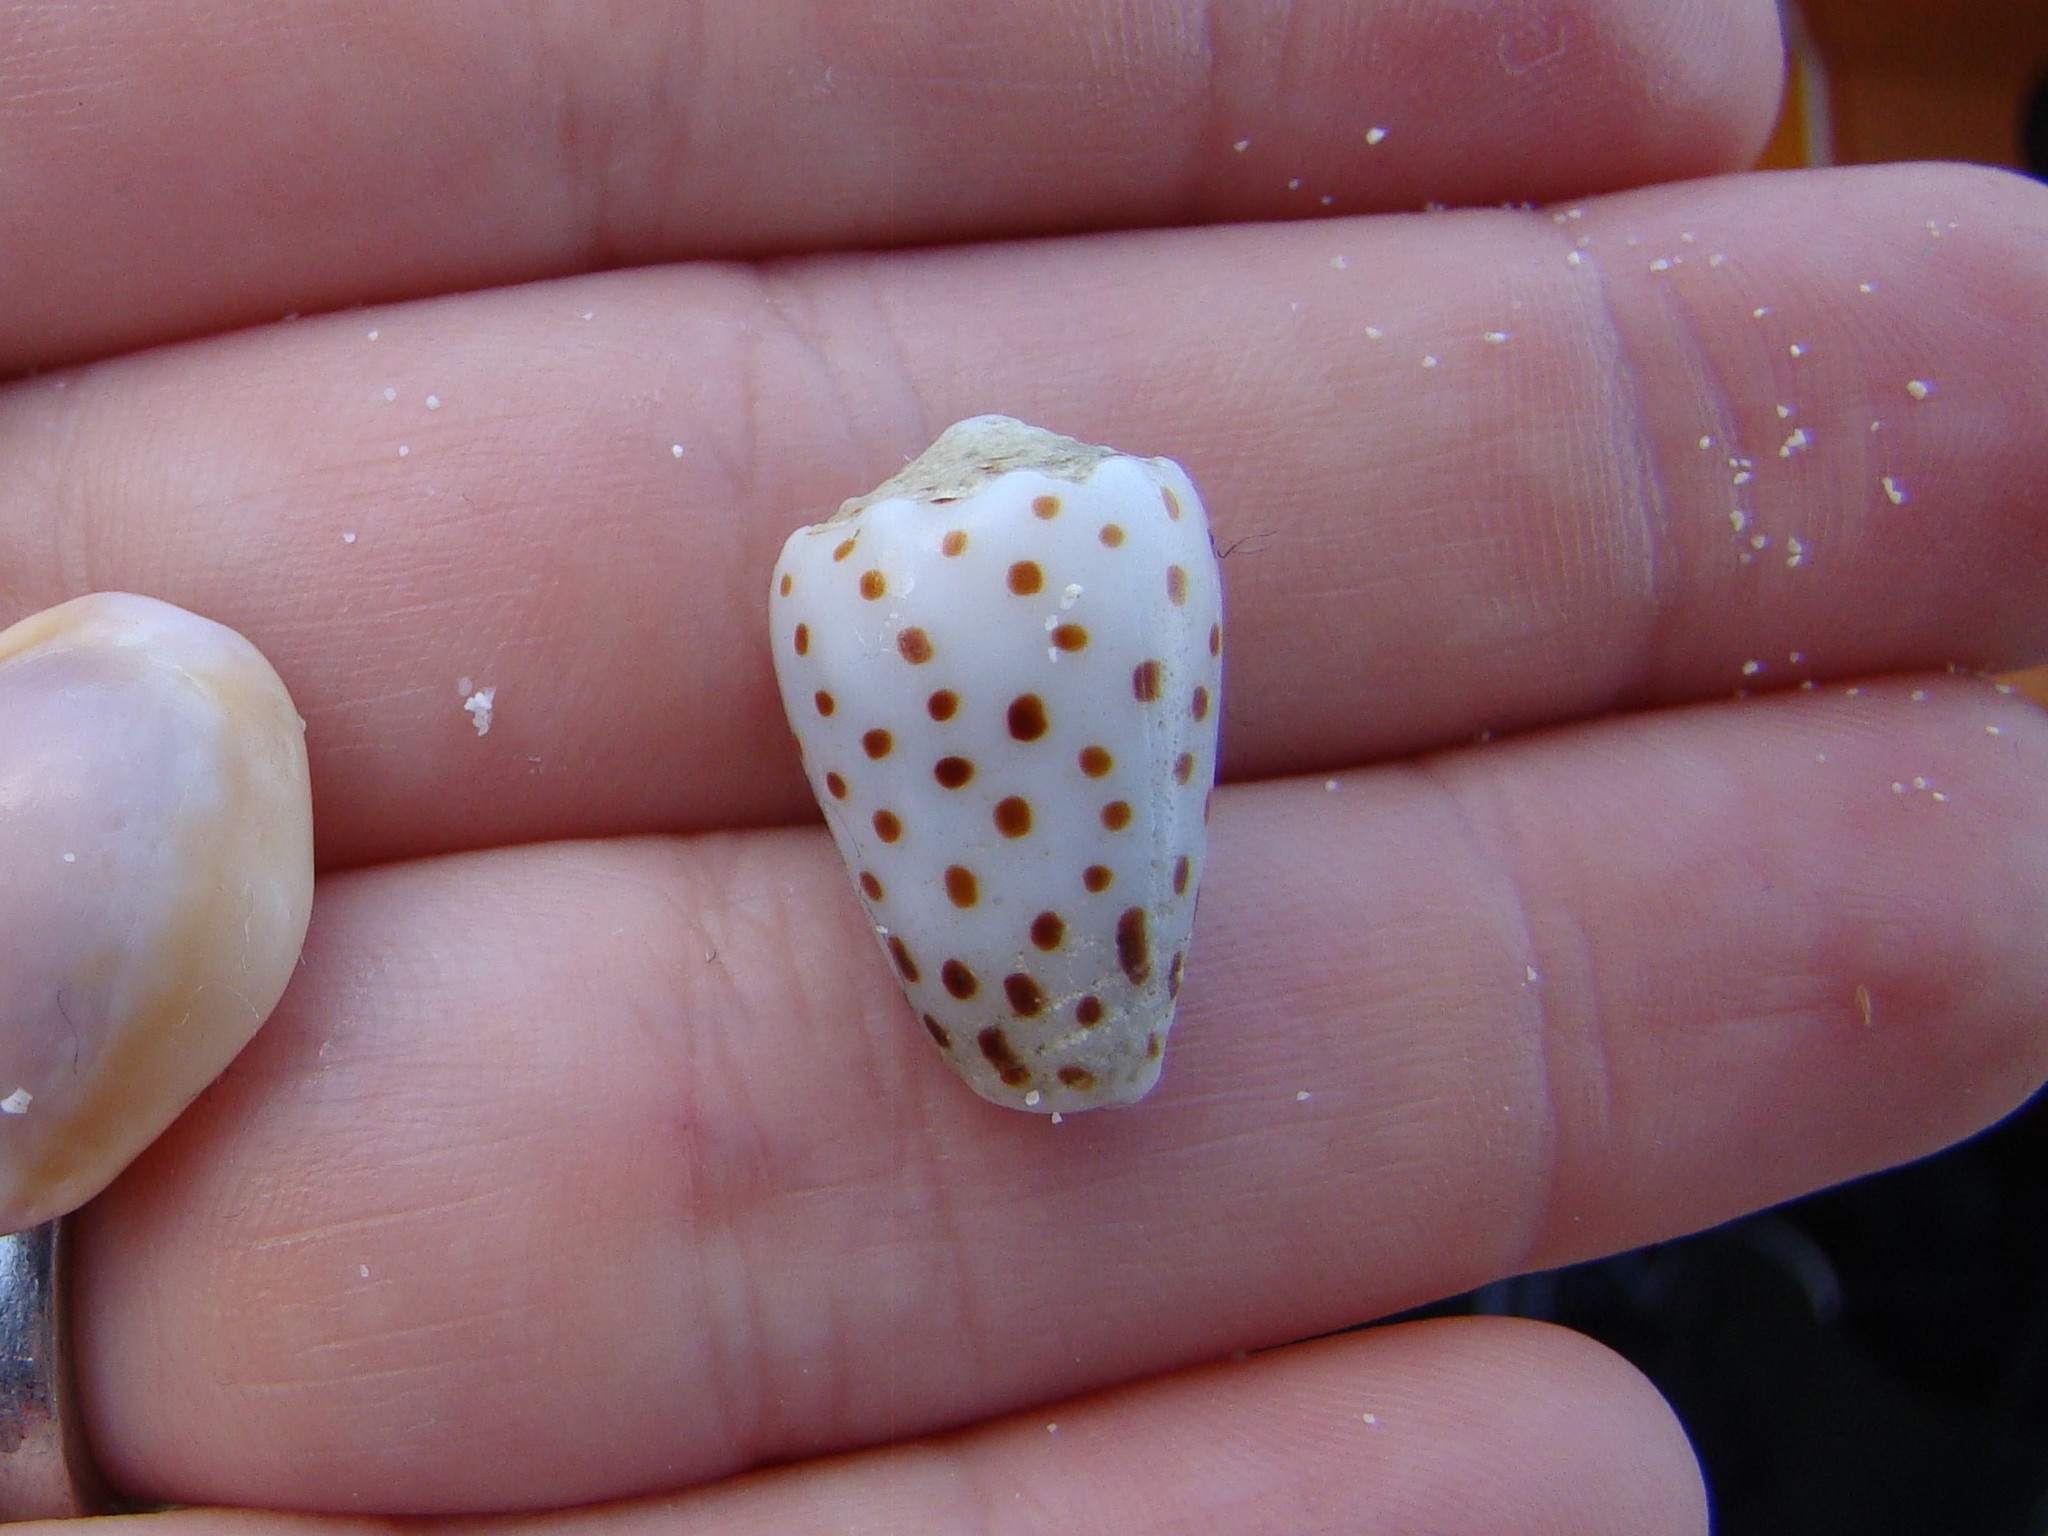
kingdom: Animalia
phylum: Mollusca
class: Gastropoda
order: Neogastropoda
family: Conidae
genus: Conus
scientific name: Conus pulicarius
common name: Flea-bite cone
